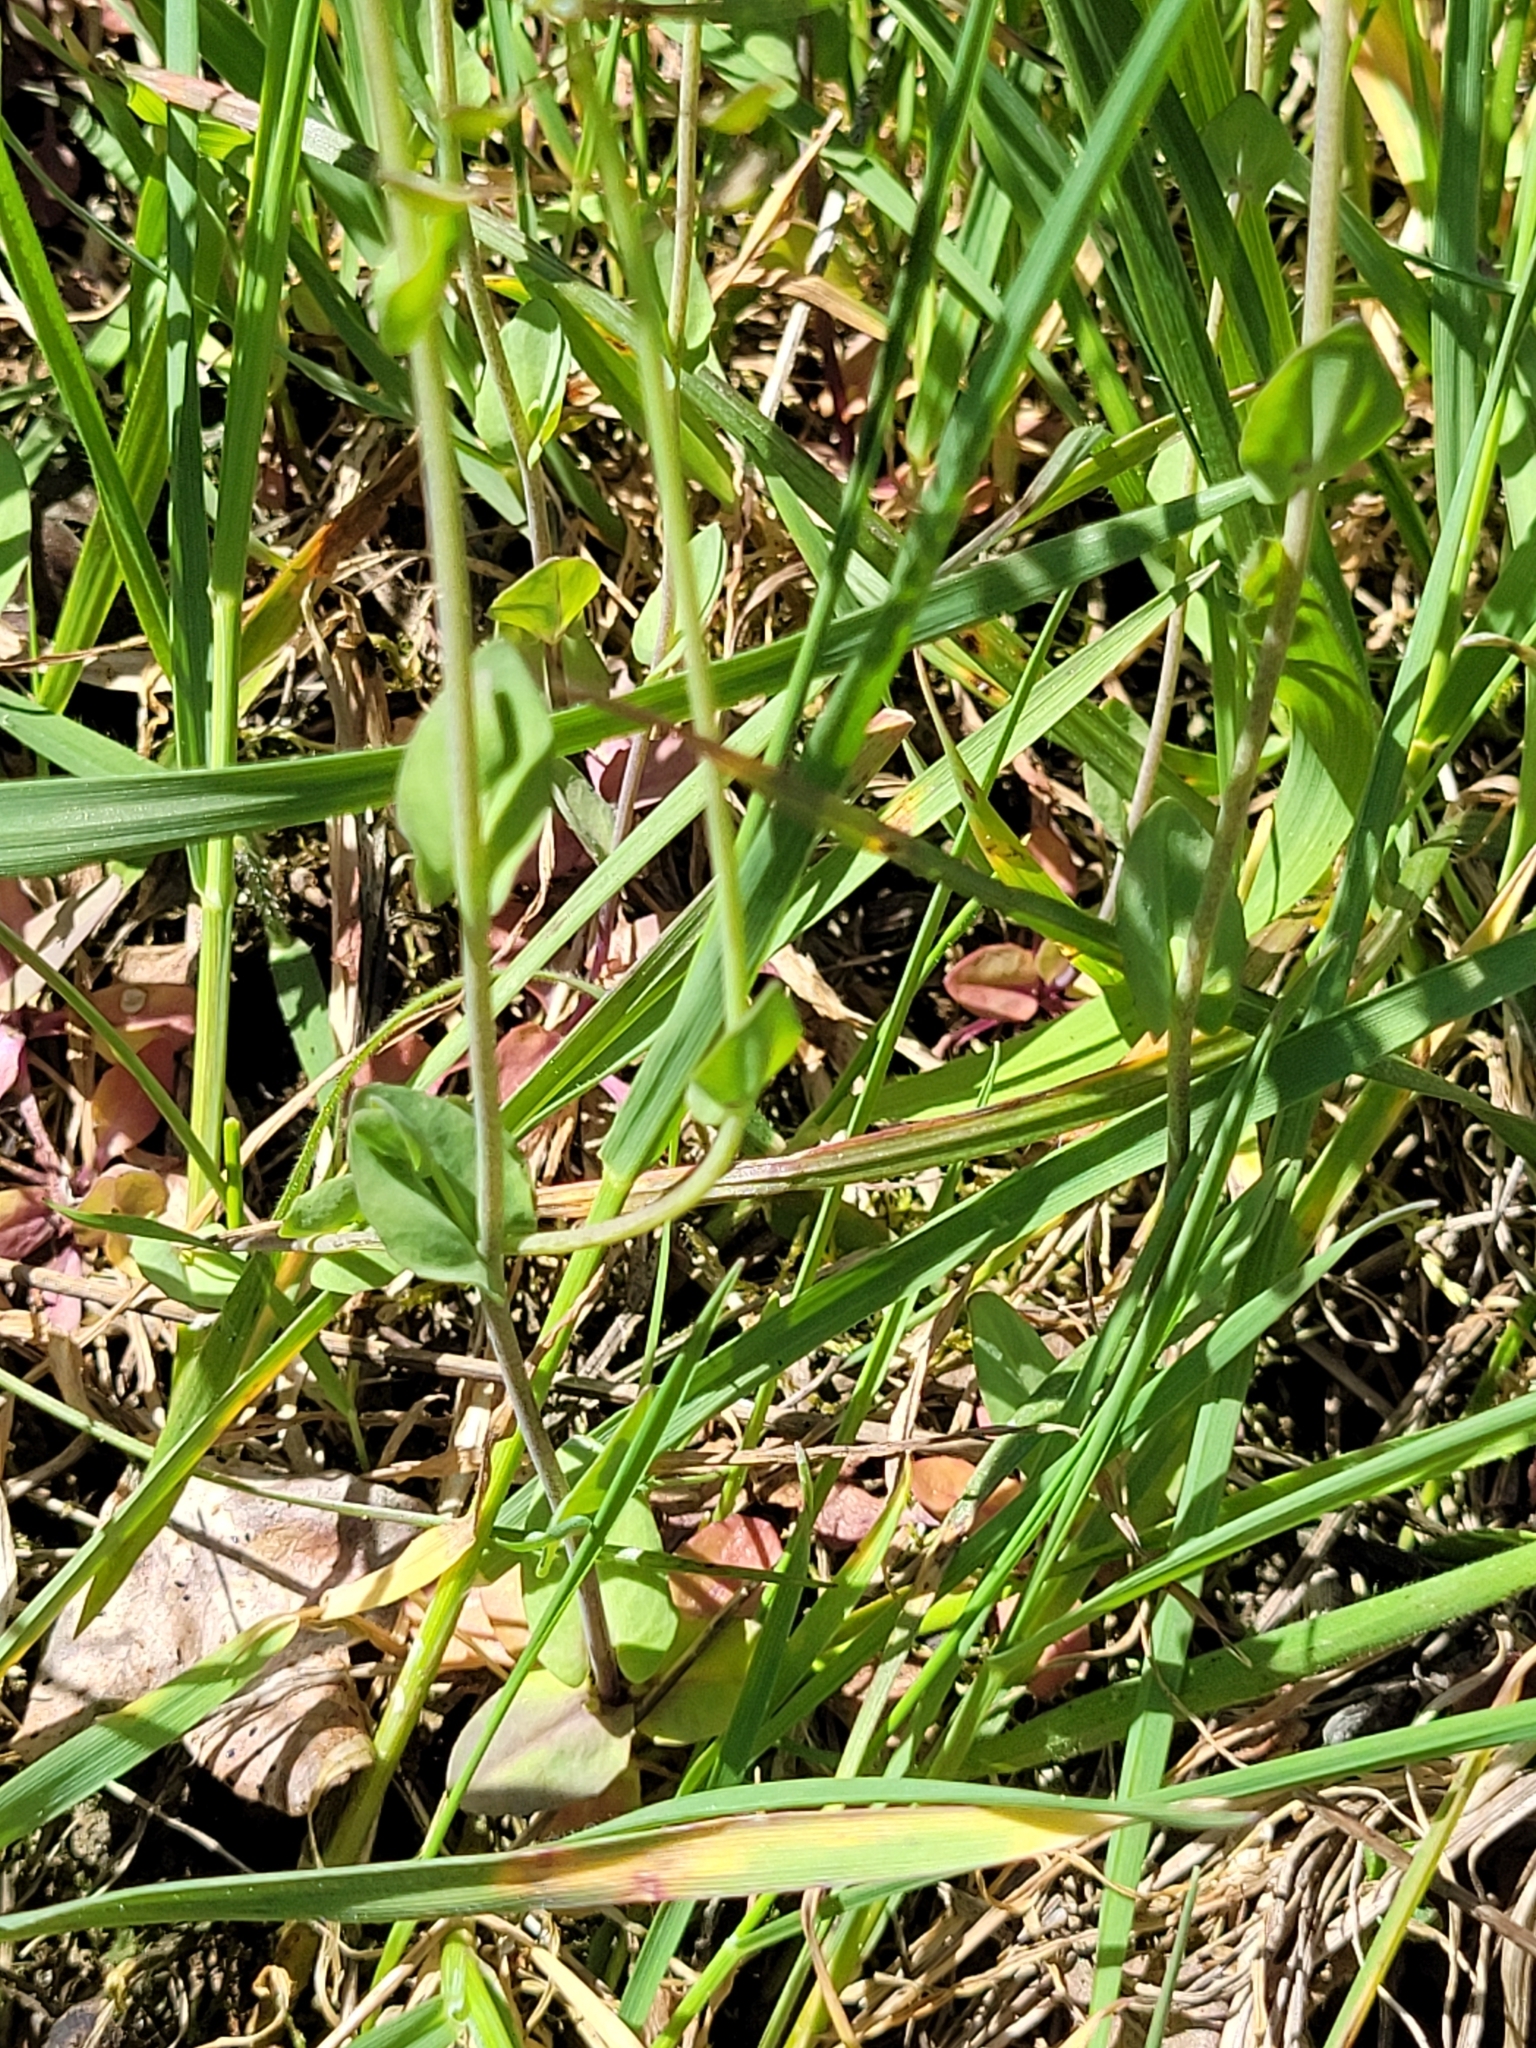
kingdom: Plantae
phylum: Tracheophyta
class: Magnoliopsida
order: Brassicales
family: Brassicaceae
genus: Noccaea
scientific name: Noccaea perfoliata
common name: Perfoliate pennycress
